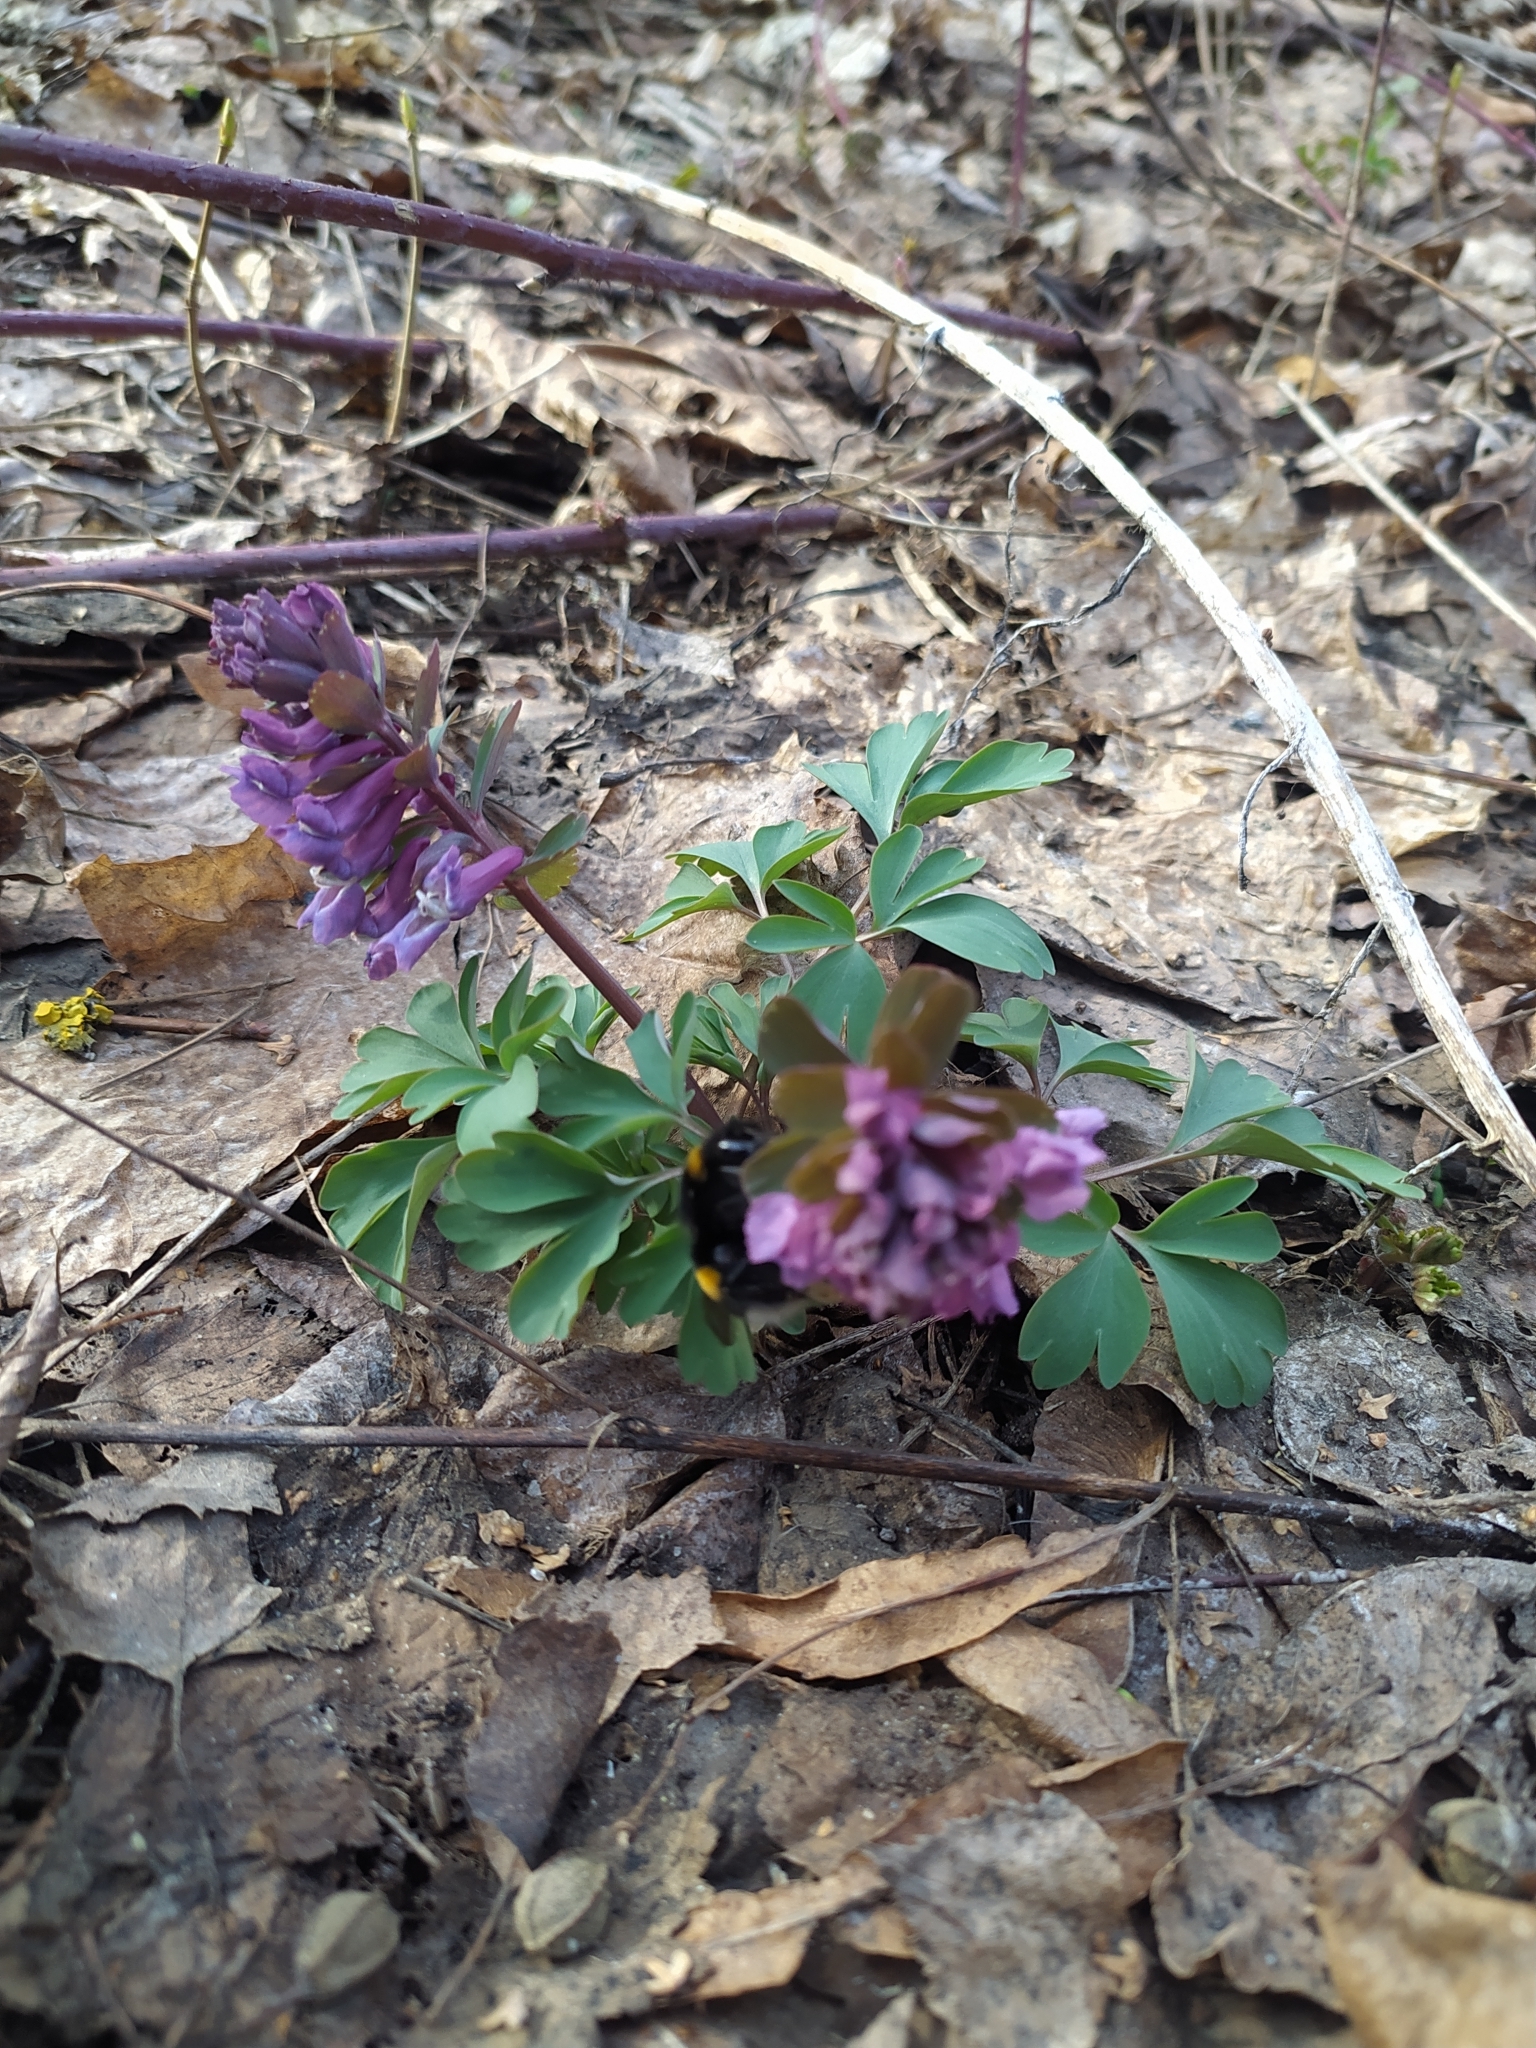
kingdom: Plantae
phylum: Tracheophyta
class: Magnoliopsida
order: Ranunculales
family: Papaveraceae
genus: Corydalis
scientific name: Corydalis solida
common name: Bird-in-a-bush
